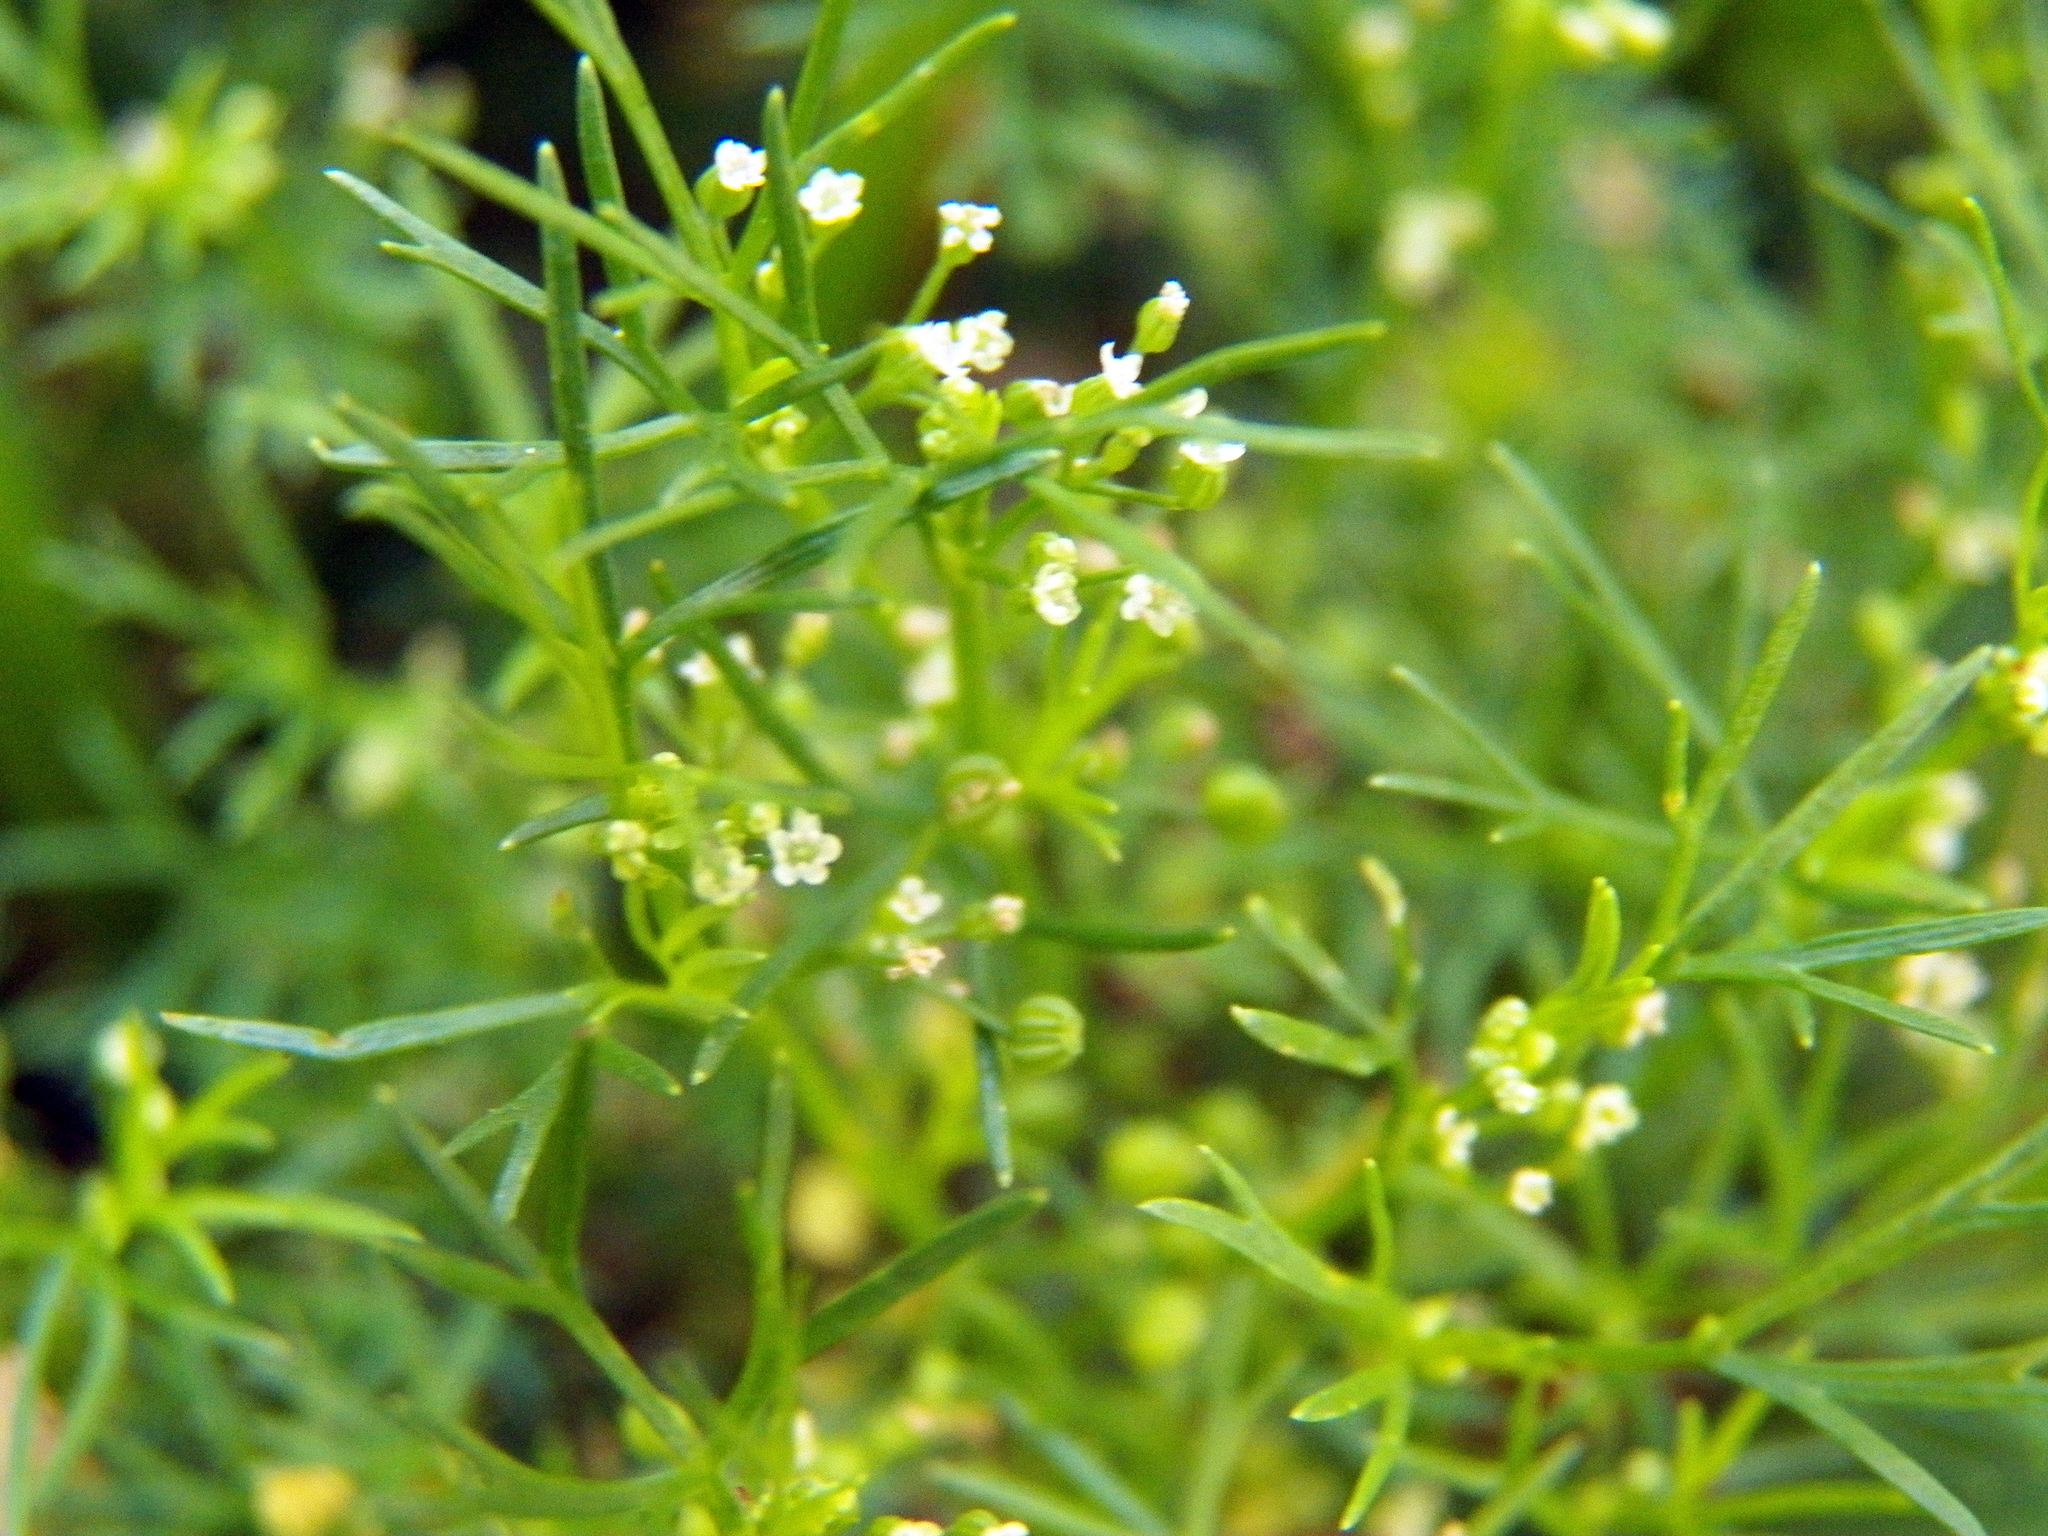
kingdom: Plantae
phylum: Tracheophyta
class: Magnoliopsida
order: Apiales
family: Apiaceae
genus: Cyclospermum
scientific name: Cyclospermum leptophyllum
